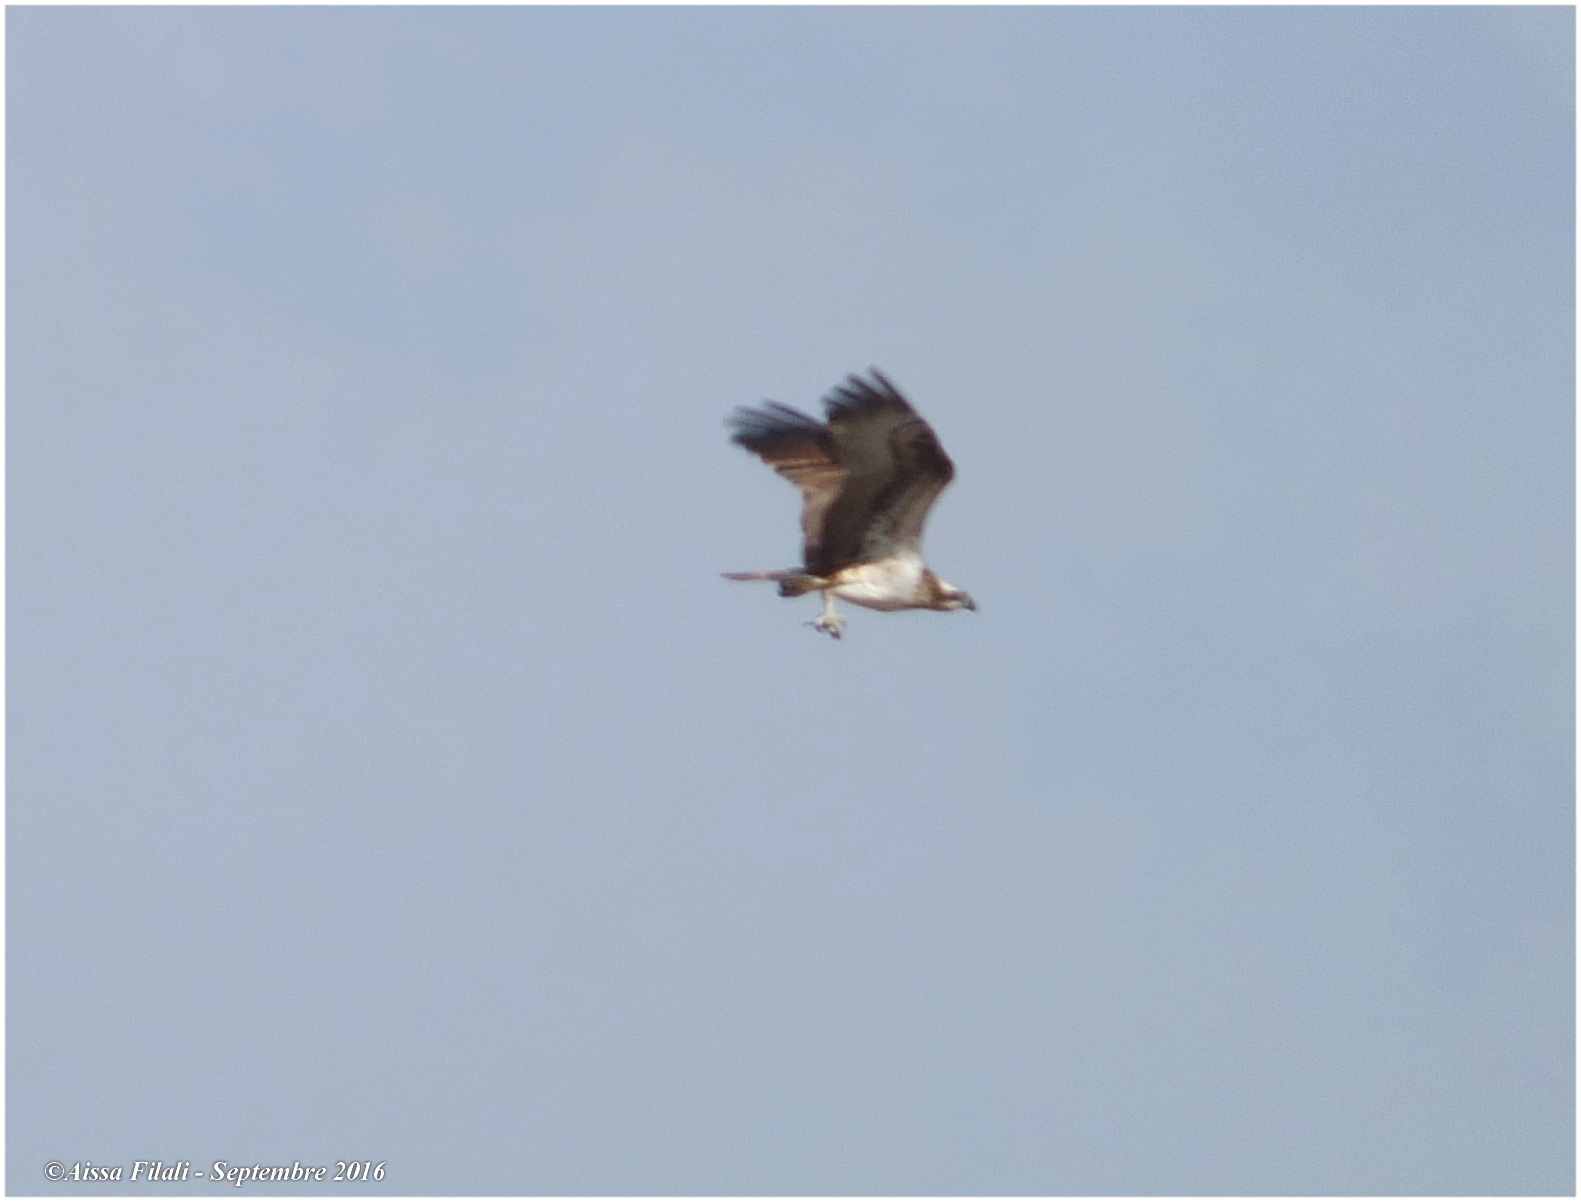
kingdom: Animalia
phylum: Chordata
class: Aves
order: Accipitriformes
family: Pandionidae
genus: Pandion
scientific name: Pandion haliaetus
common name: Osprey
